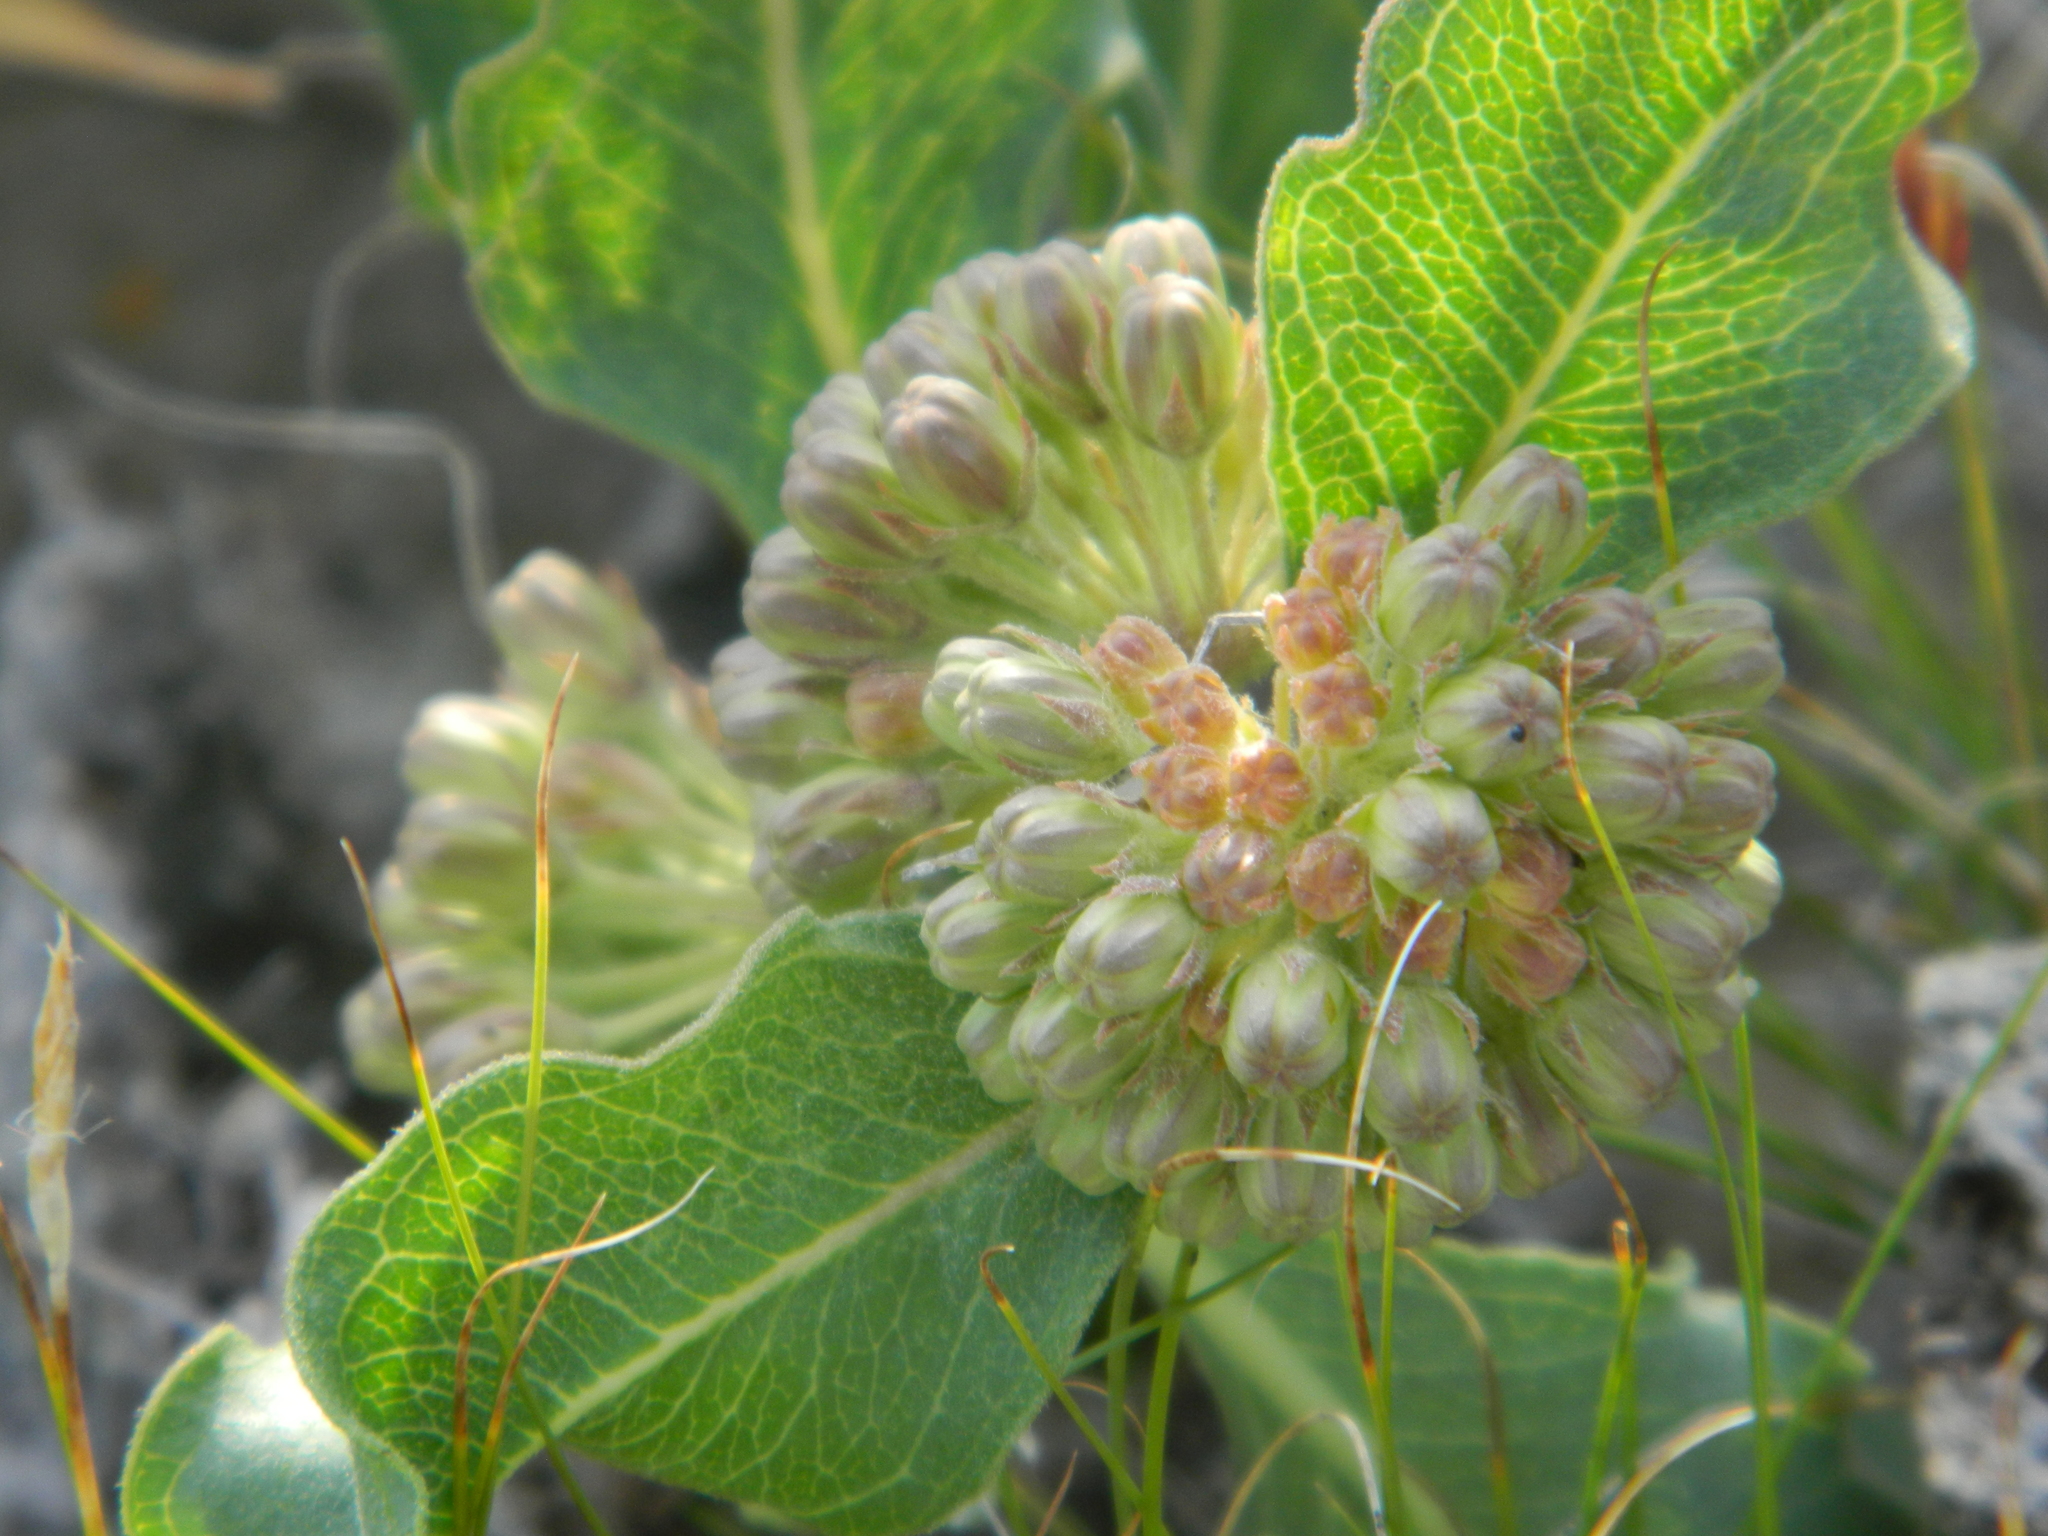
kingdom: Plantae
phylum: Tracheophyta
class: Magnoliopsida
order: Gentianales
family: Apocynaceae
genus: Asclepias
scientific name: Asclepias viridiflora
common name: Green comet milkweed
